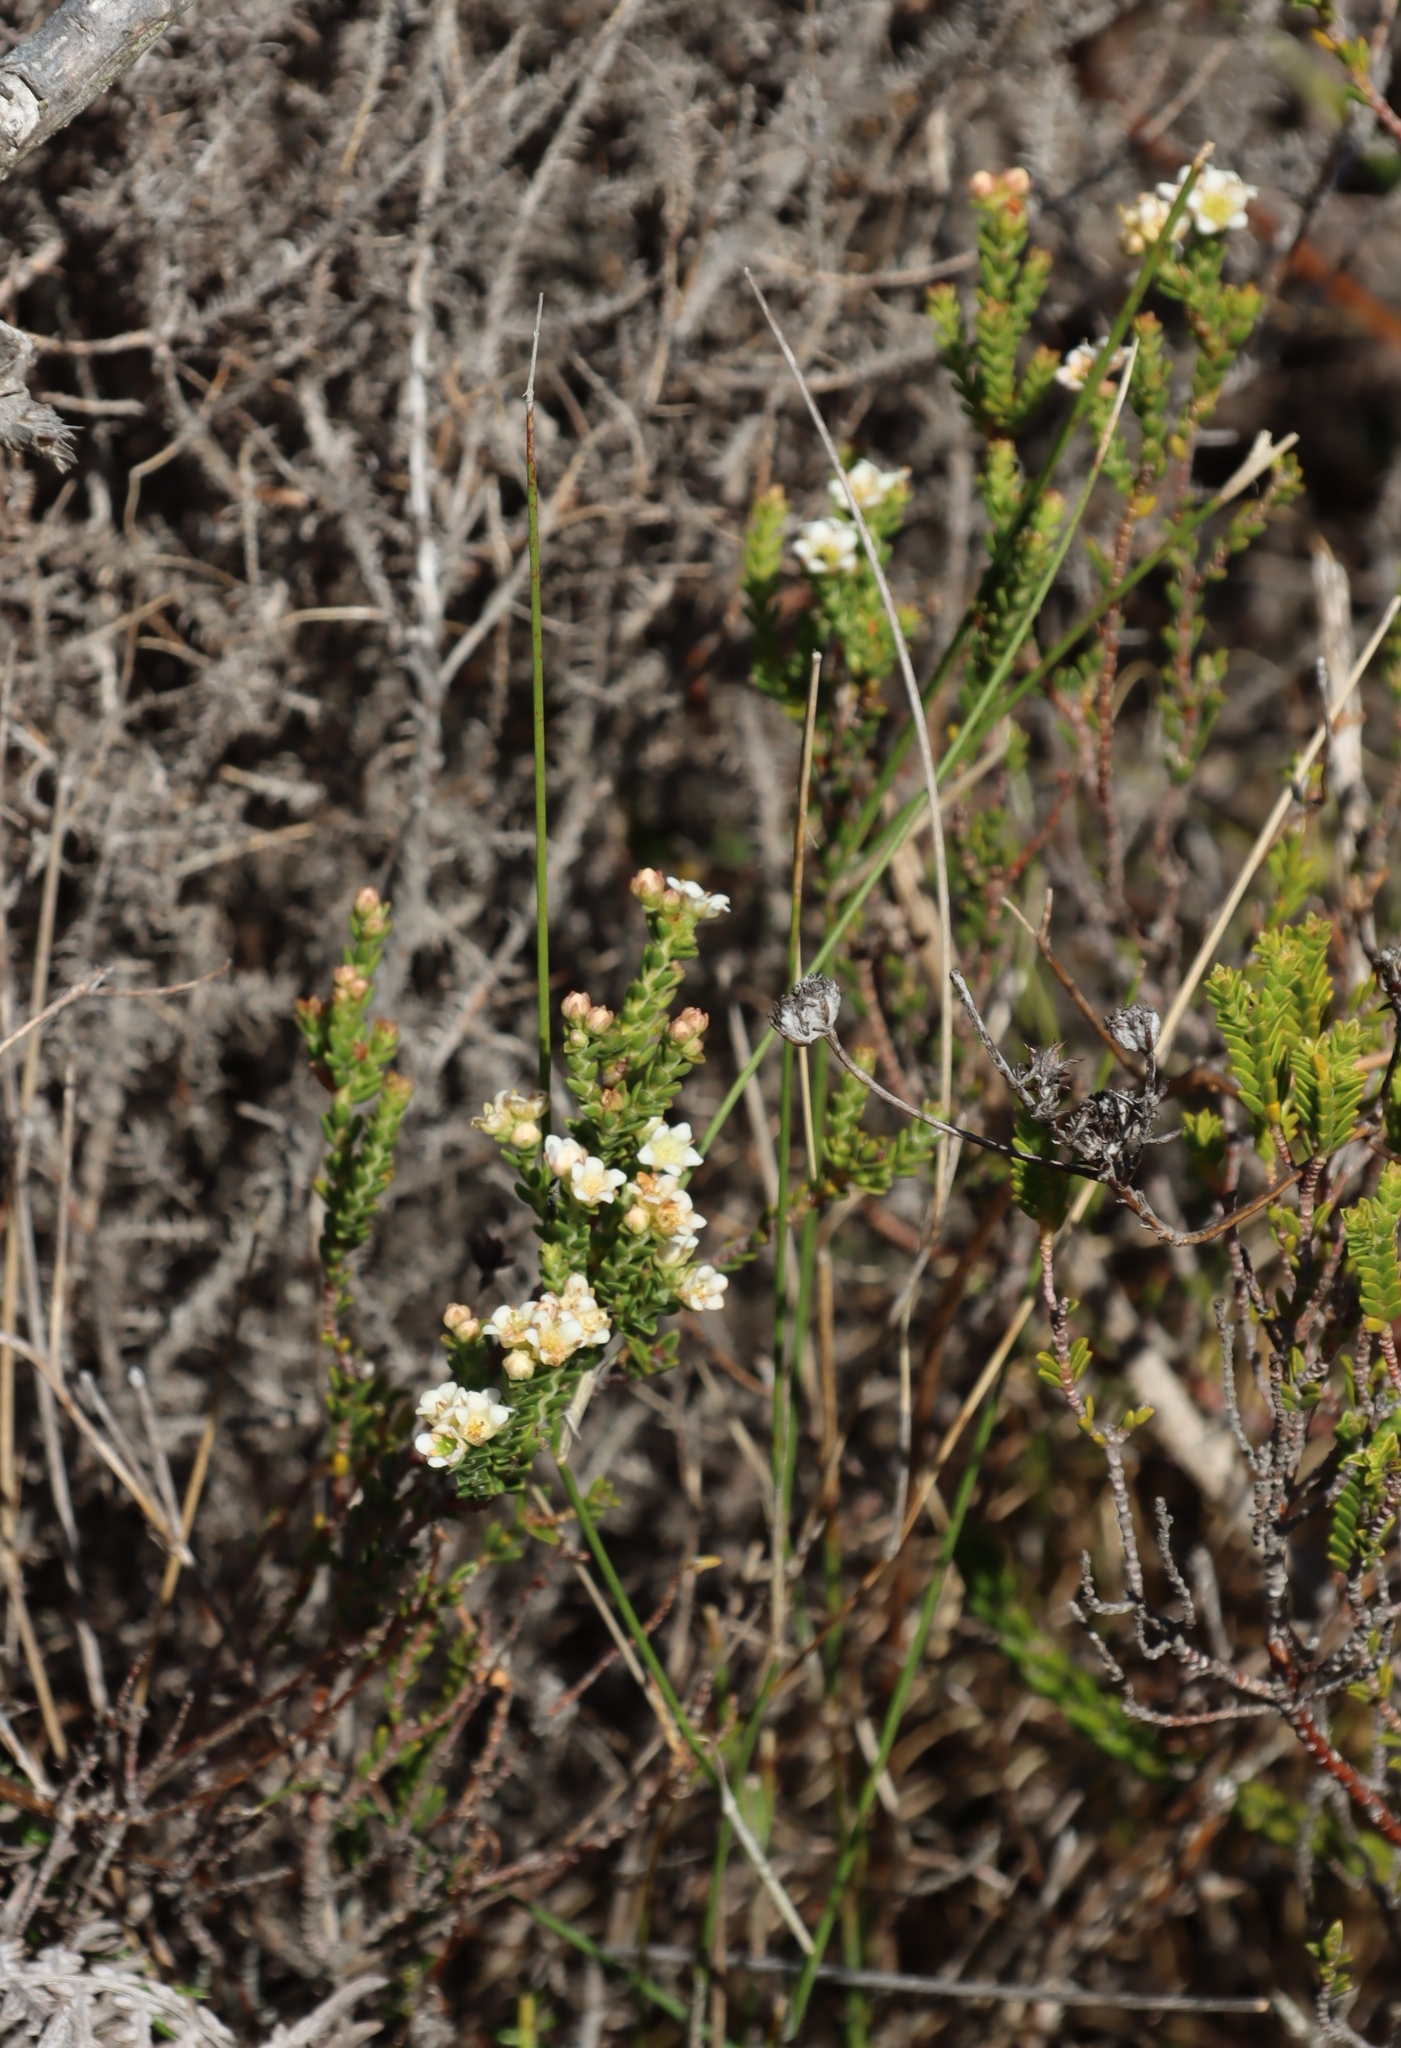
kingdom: Plantae
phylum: Tracheophyta
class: Magnoliopsida
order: Sapindales
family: Rutaceae
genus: Diosma
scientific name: Diosma oppositifolia
